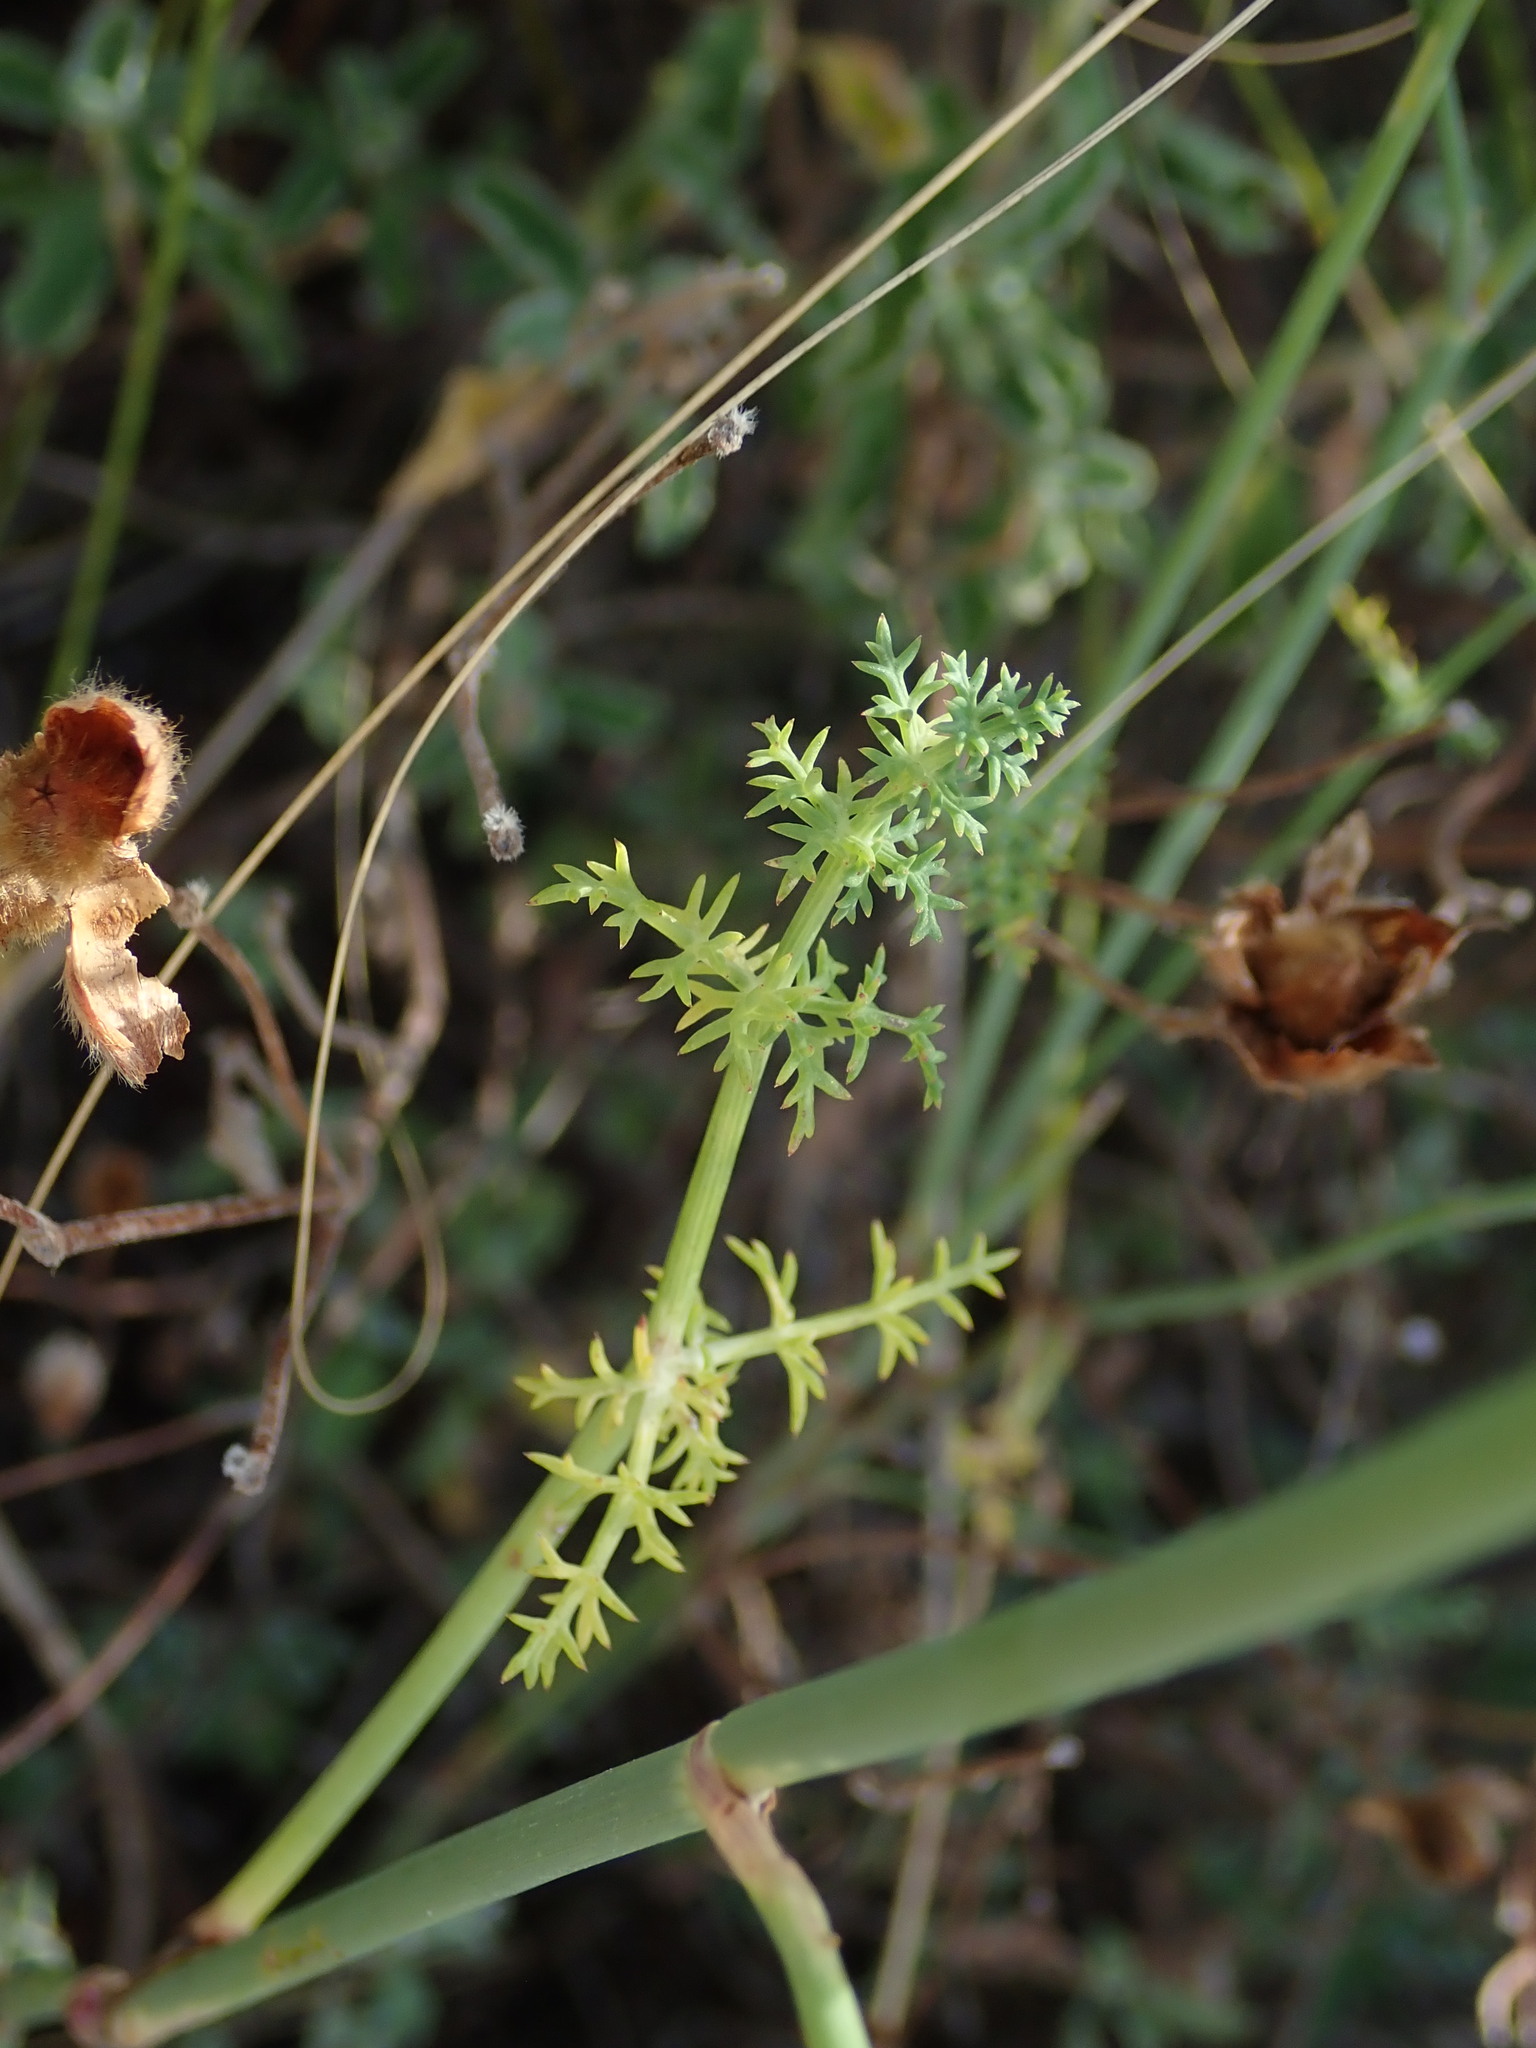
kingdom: Plantae
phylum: Tracheophyta
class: Magnoliopsida
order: Apiales
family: Apiaceae
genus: Foeniculum
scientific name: Foeniculum vulgare
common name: Fennel
